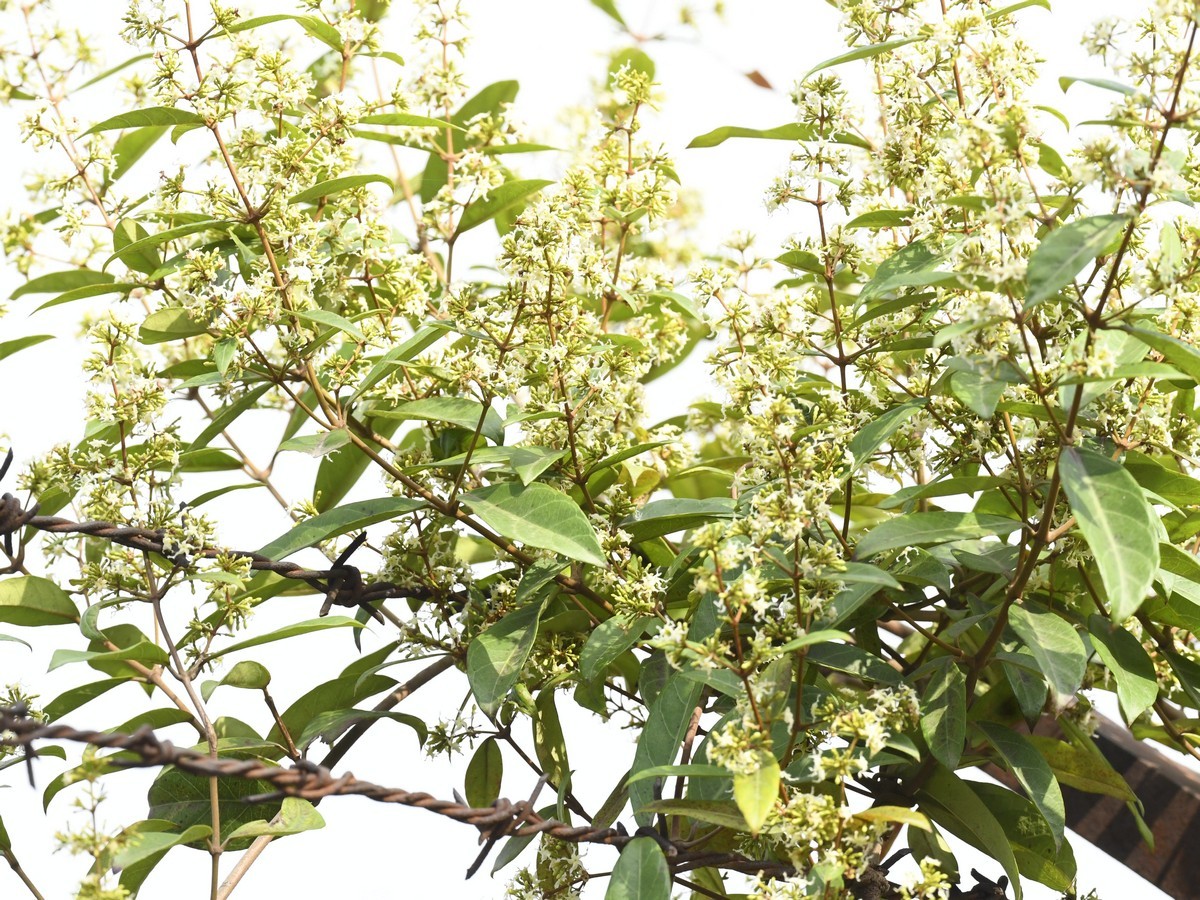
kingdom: Plantae
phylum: Tracheophyta
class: Magnoliopsida
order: Gentianales
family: Apocynaceae
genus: Ichnocarpus
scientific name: Ichnocarpus frutescens
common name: Ichnocarpus
